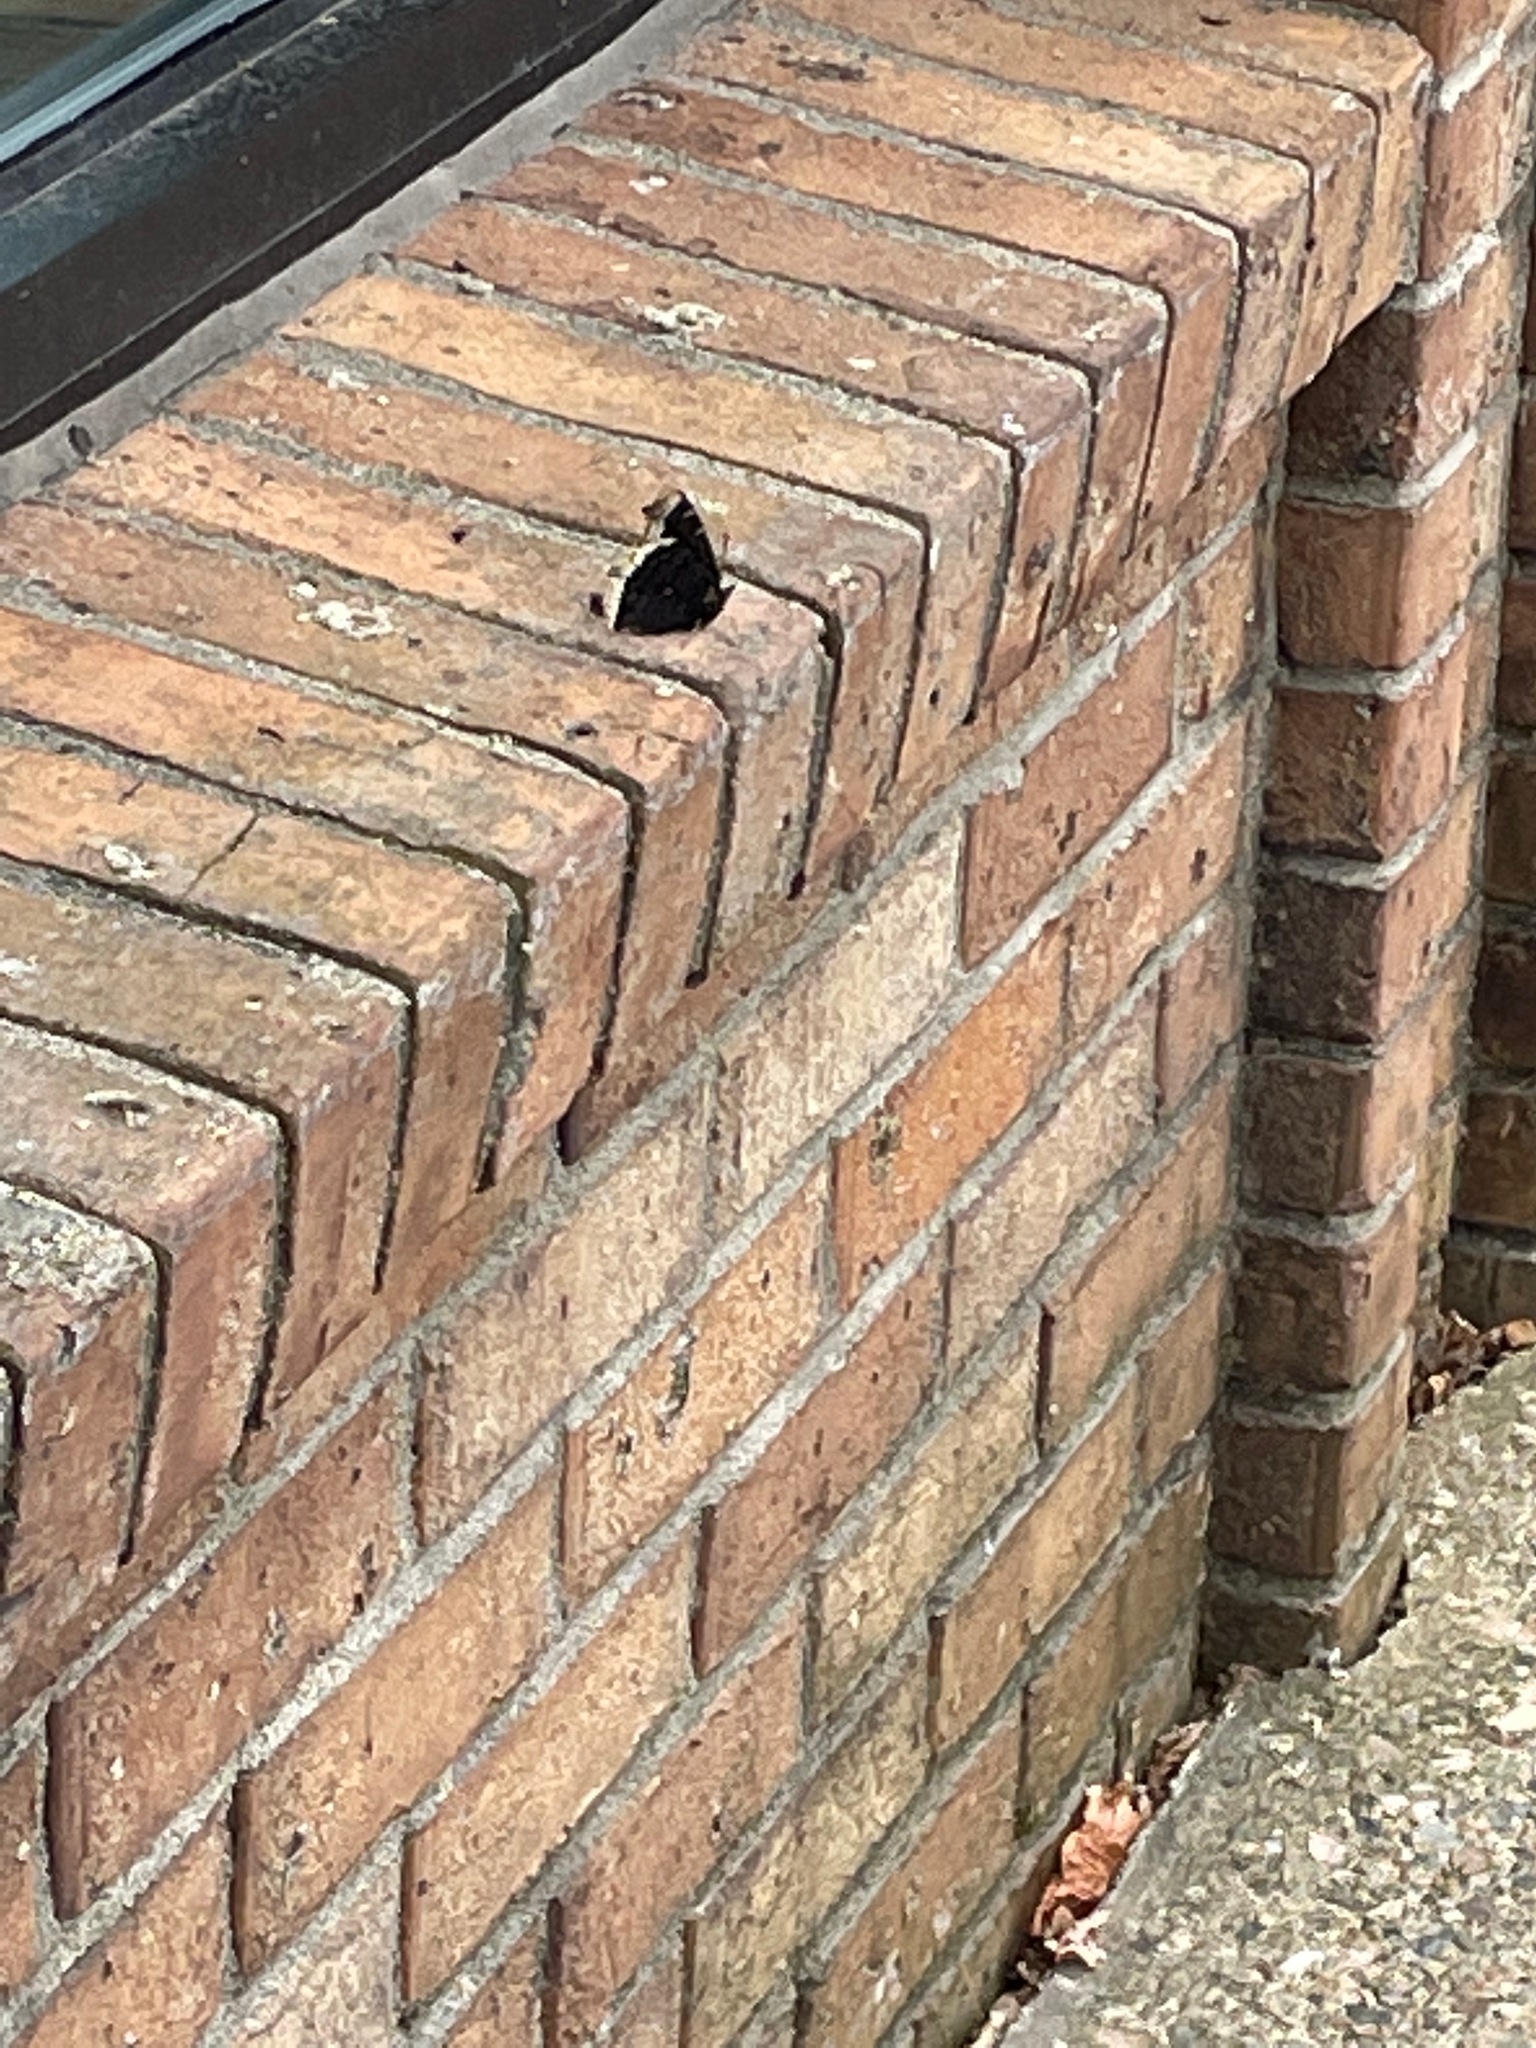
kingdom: Animalia
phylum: Arthropoda
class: Insecta
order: Lepidoptera
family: Nymphalidae
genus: Nymphalis
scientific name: Nymphalis antiopa
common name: Camberwell beauty
